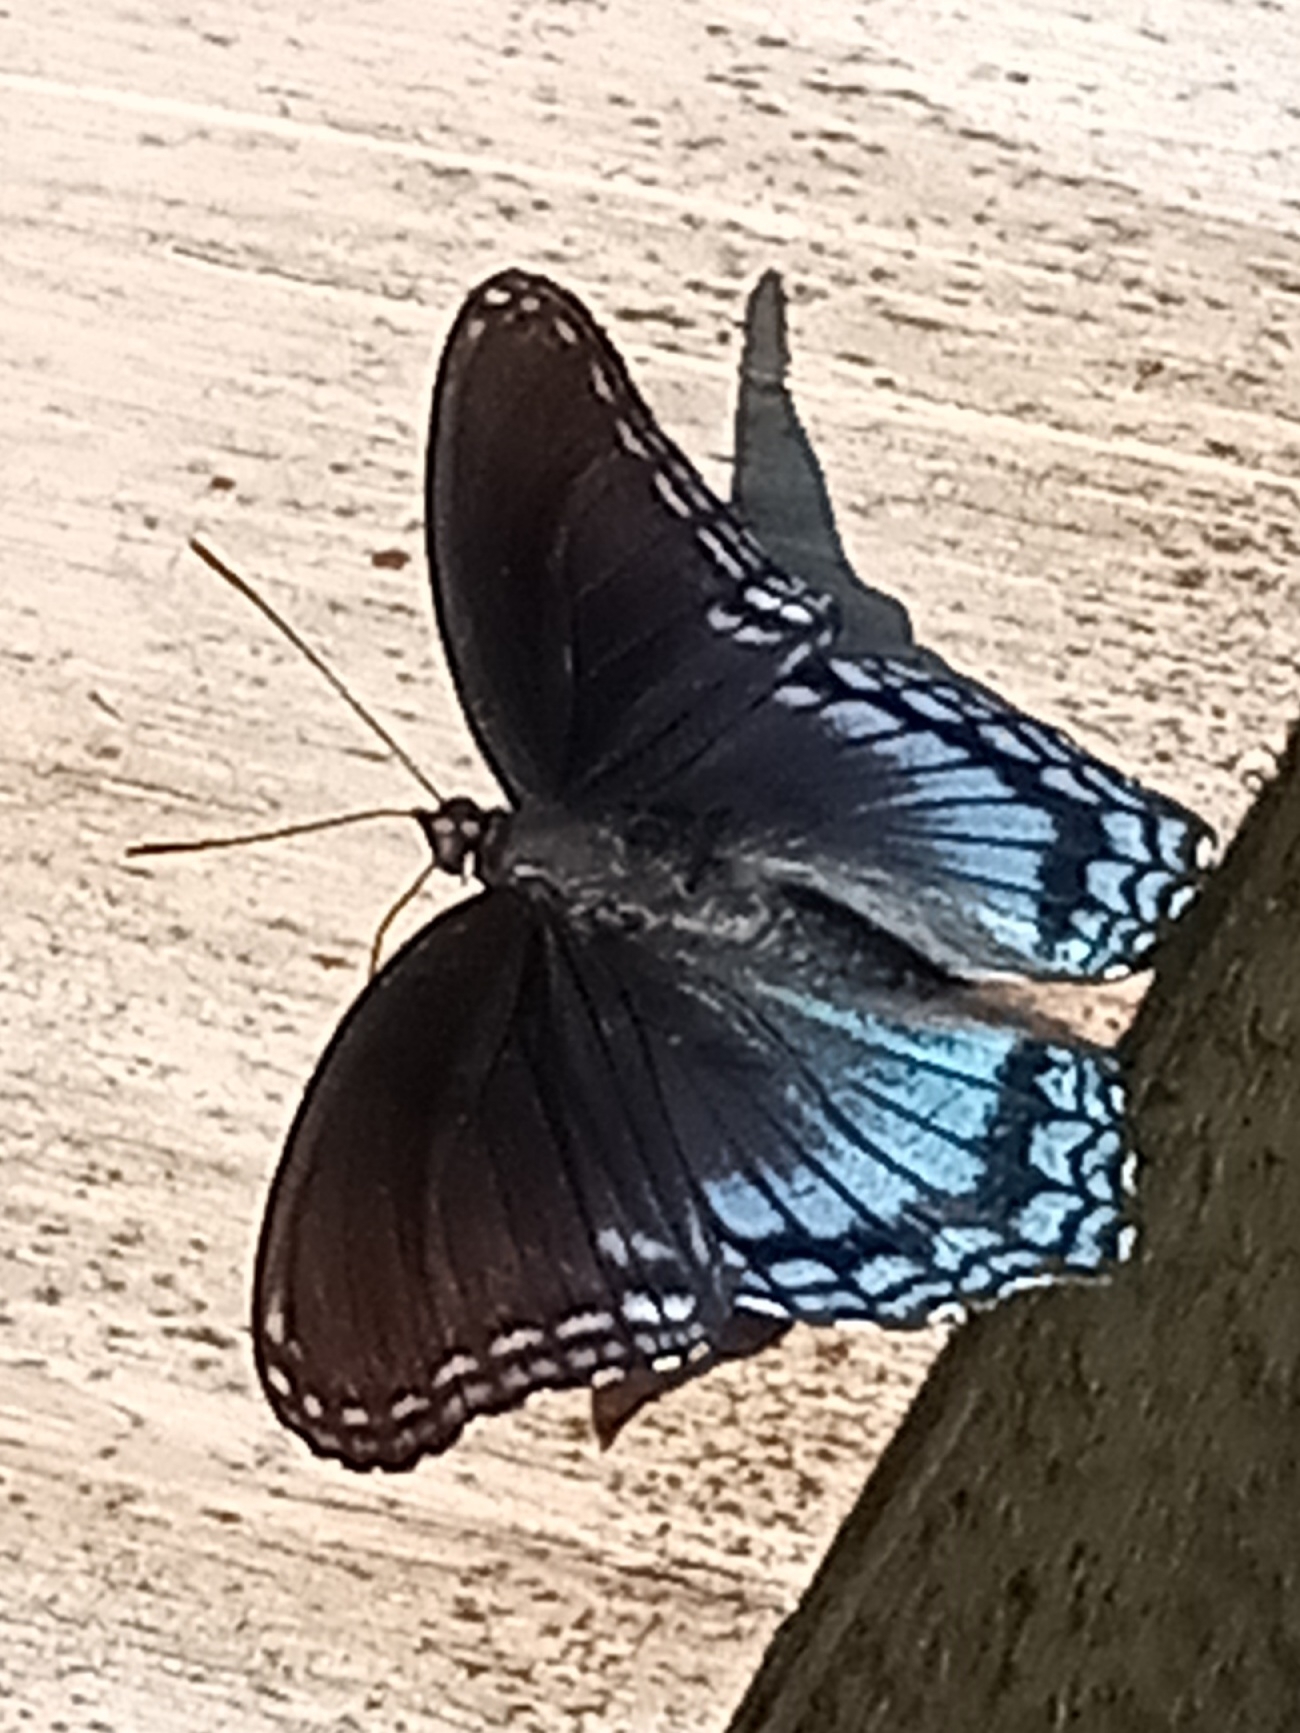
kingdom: Animalia
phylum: Arthropoda
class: Insecta
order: Lepidoptera
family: Nymphalidae
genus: Limenitis
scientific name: Limenitis astyanax
